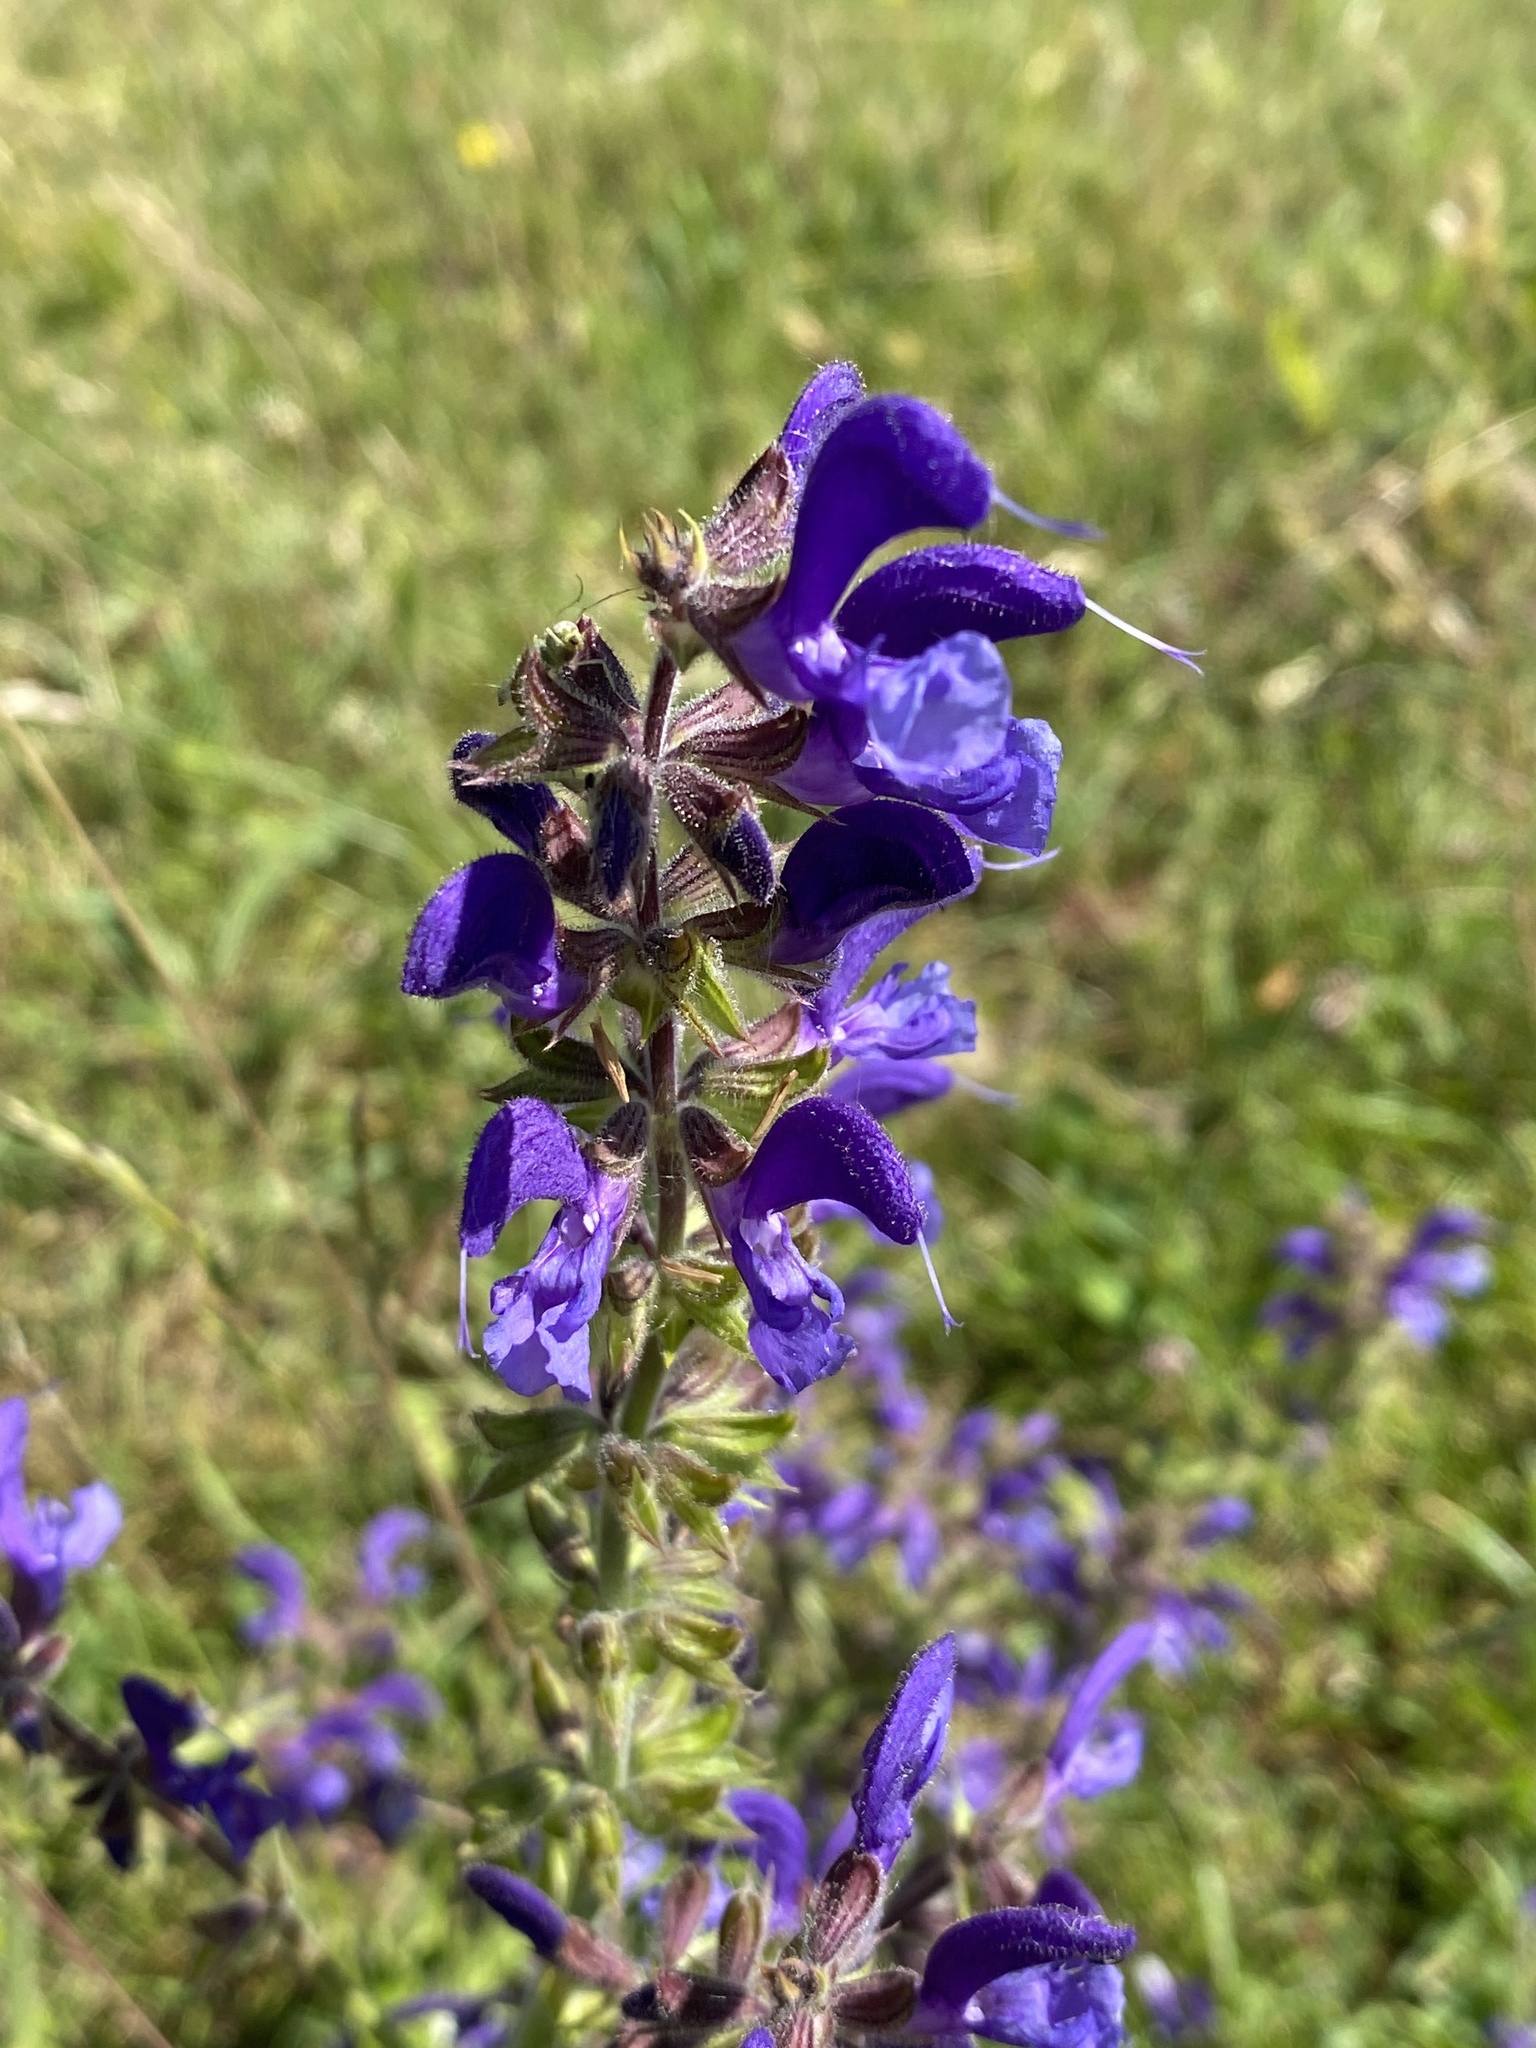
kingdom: Plantae
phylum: Tracheophyta
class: Magnoliopsida
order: Lamiales
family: Lamiaceae
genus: Salvia
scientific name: Salvia pratensis
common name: Meadow sage
